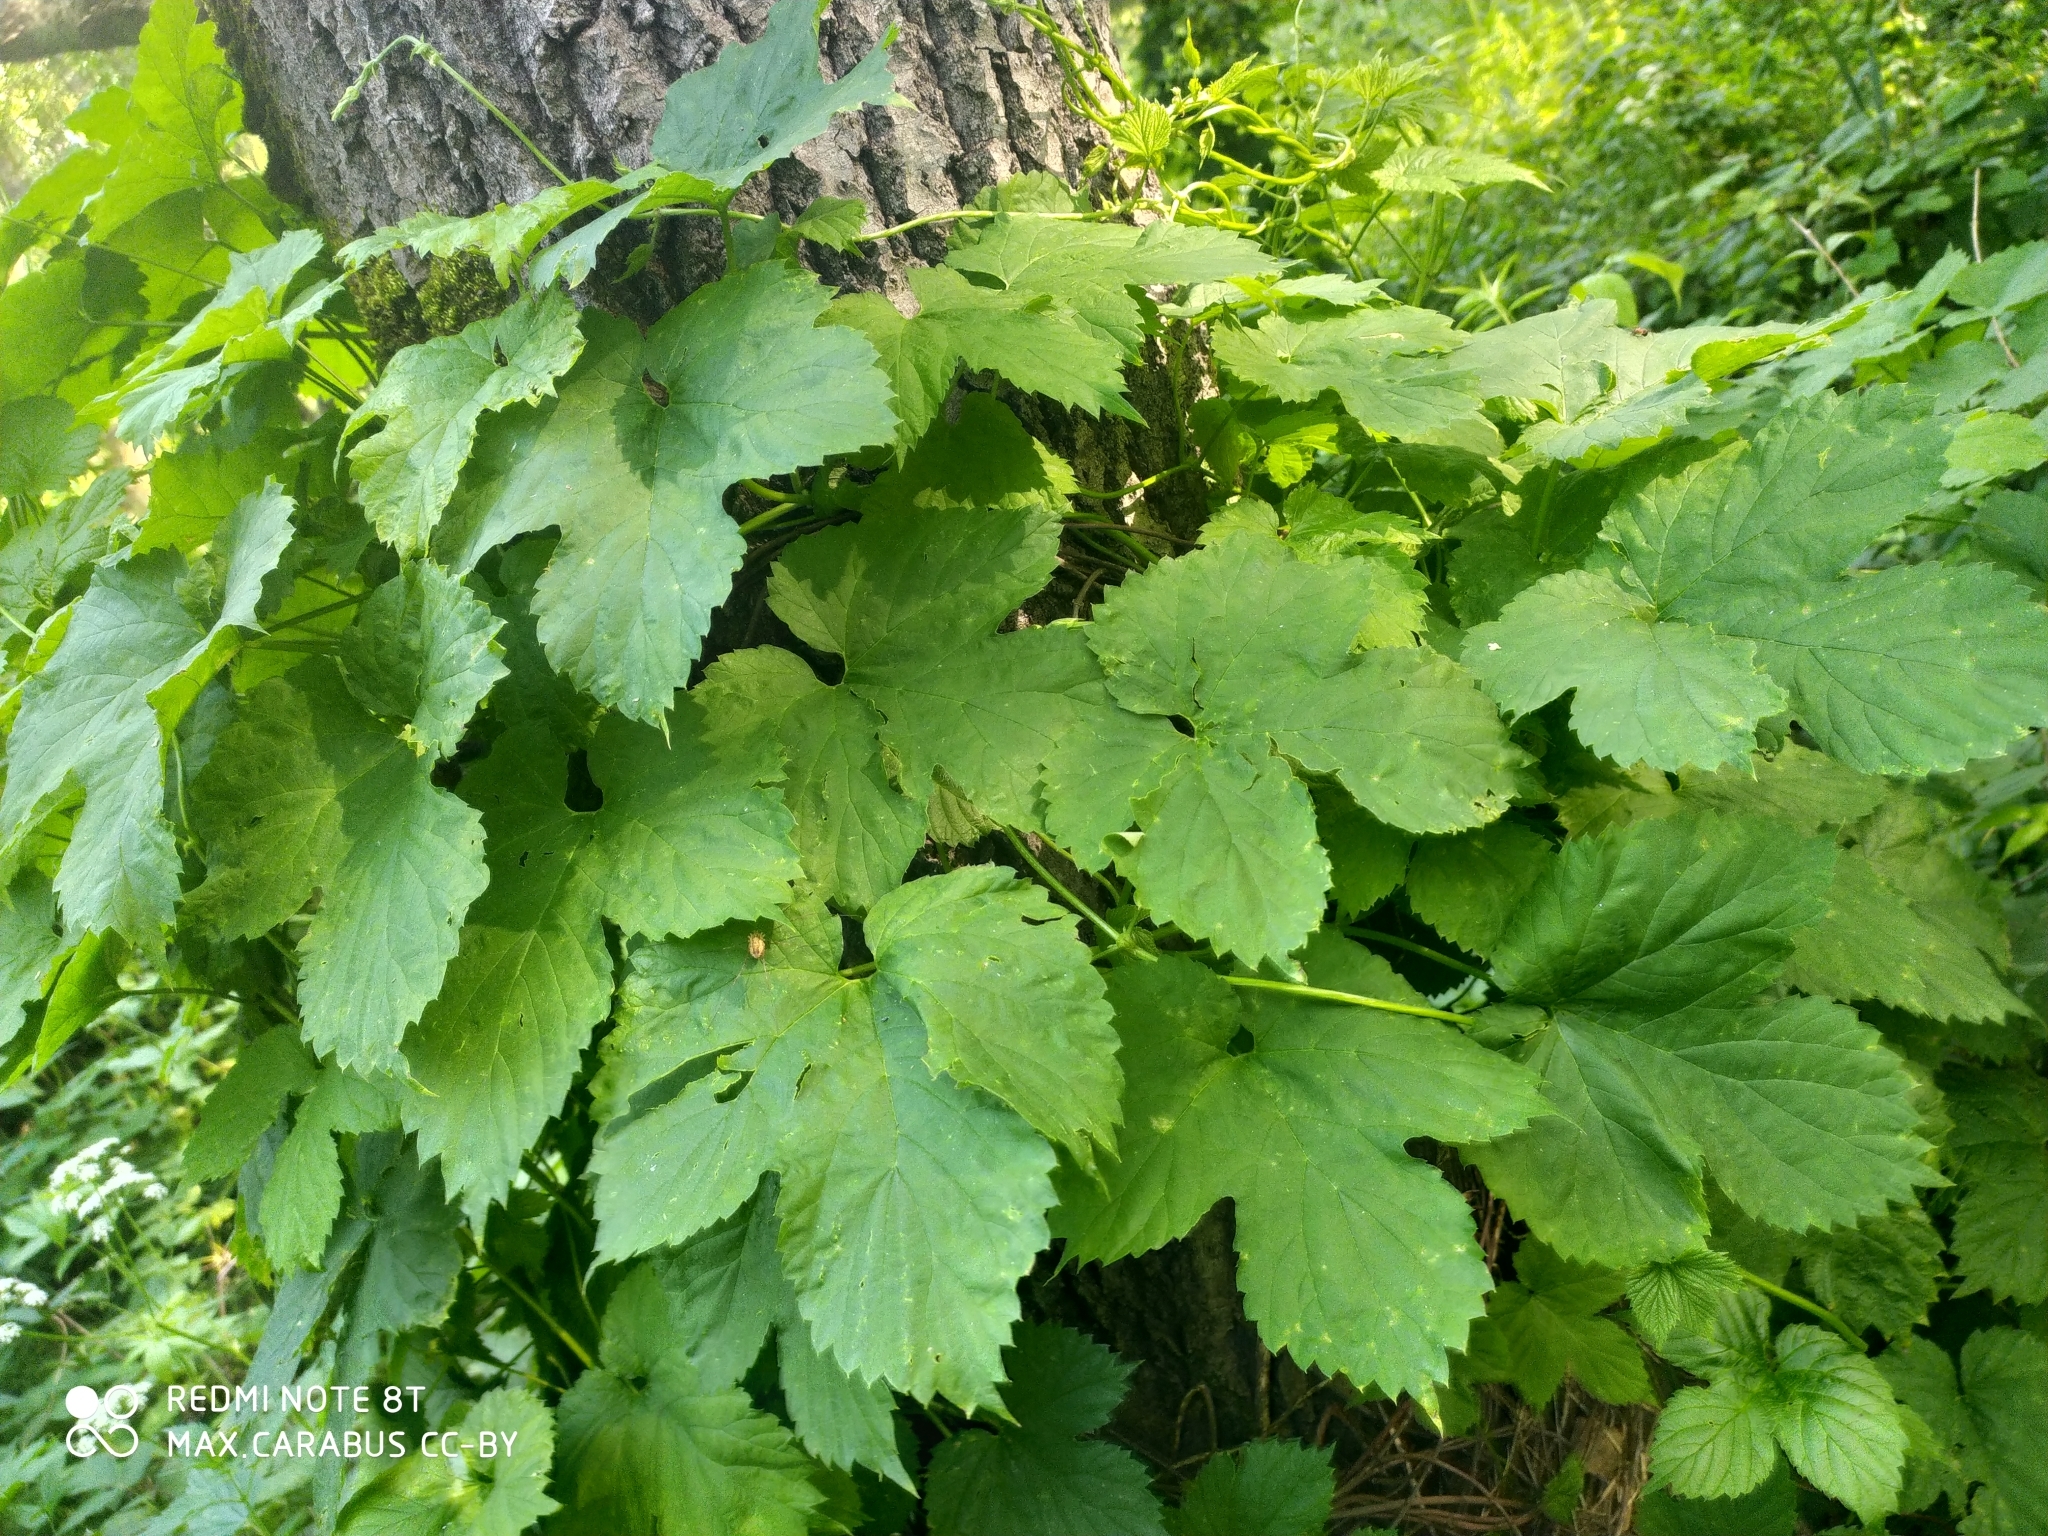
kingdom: Plantae
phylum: Tracheophyta
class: Magnoliopsida
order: Rosales
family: Cannabaceae
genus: Humulus
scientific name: Humulus lupulus
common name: Hop
